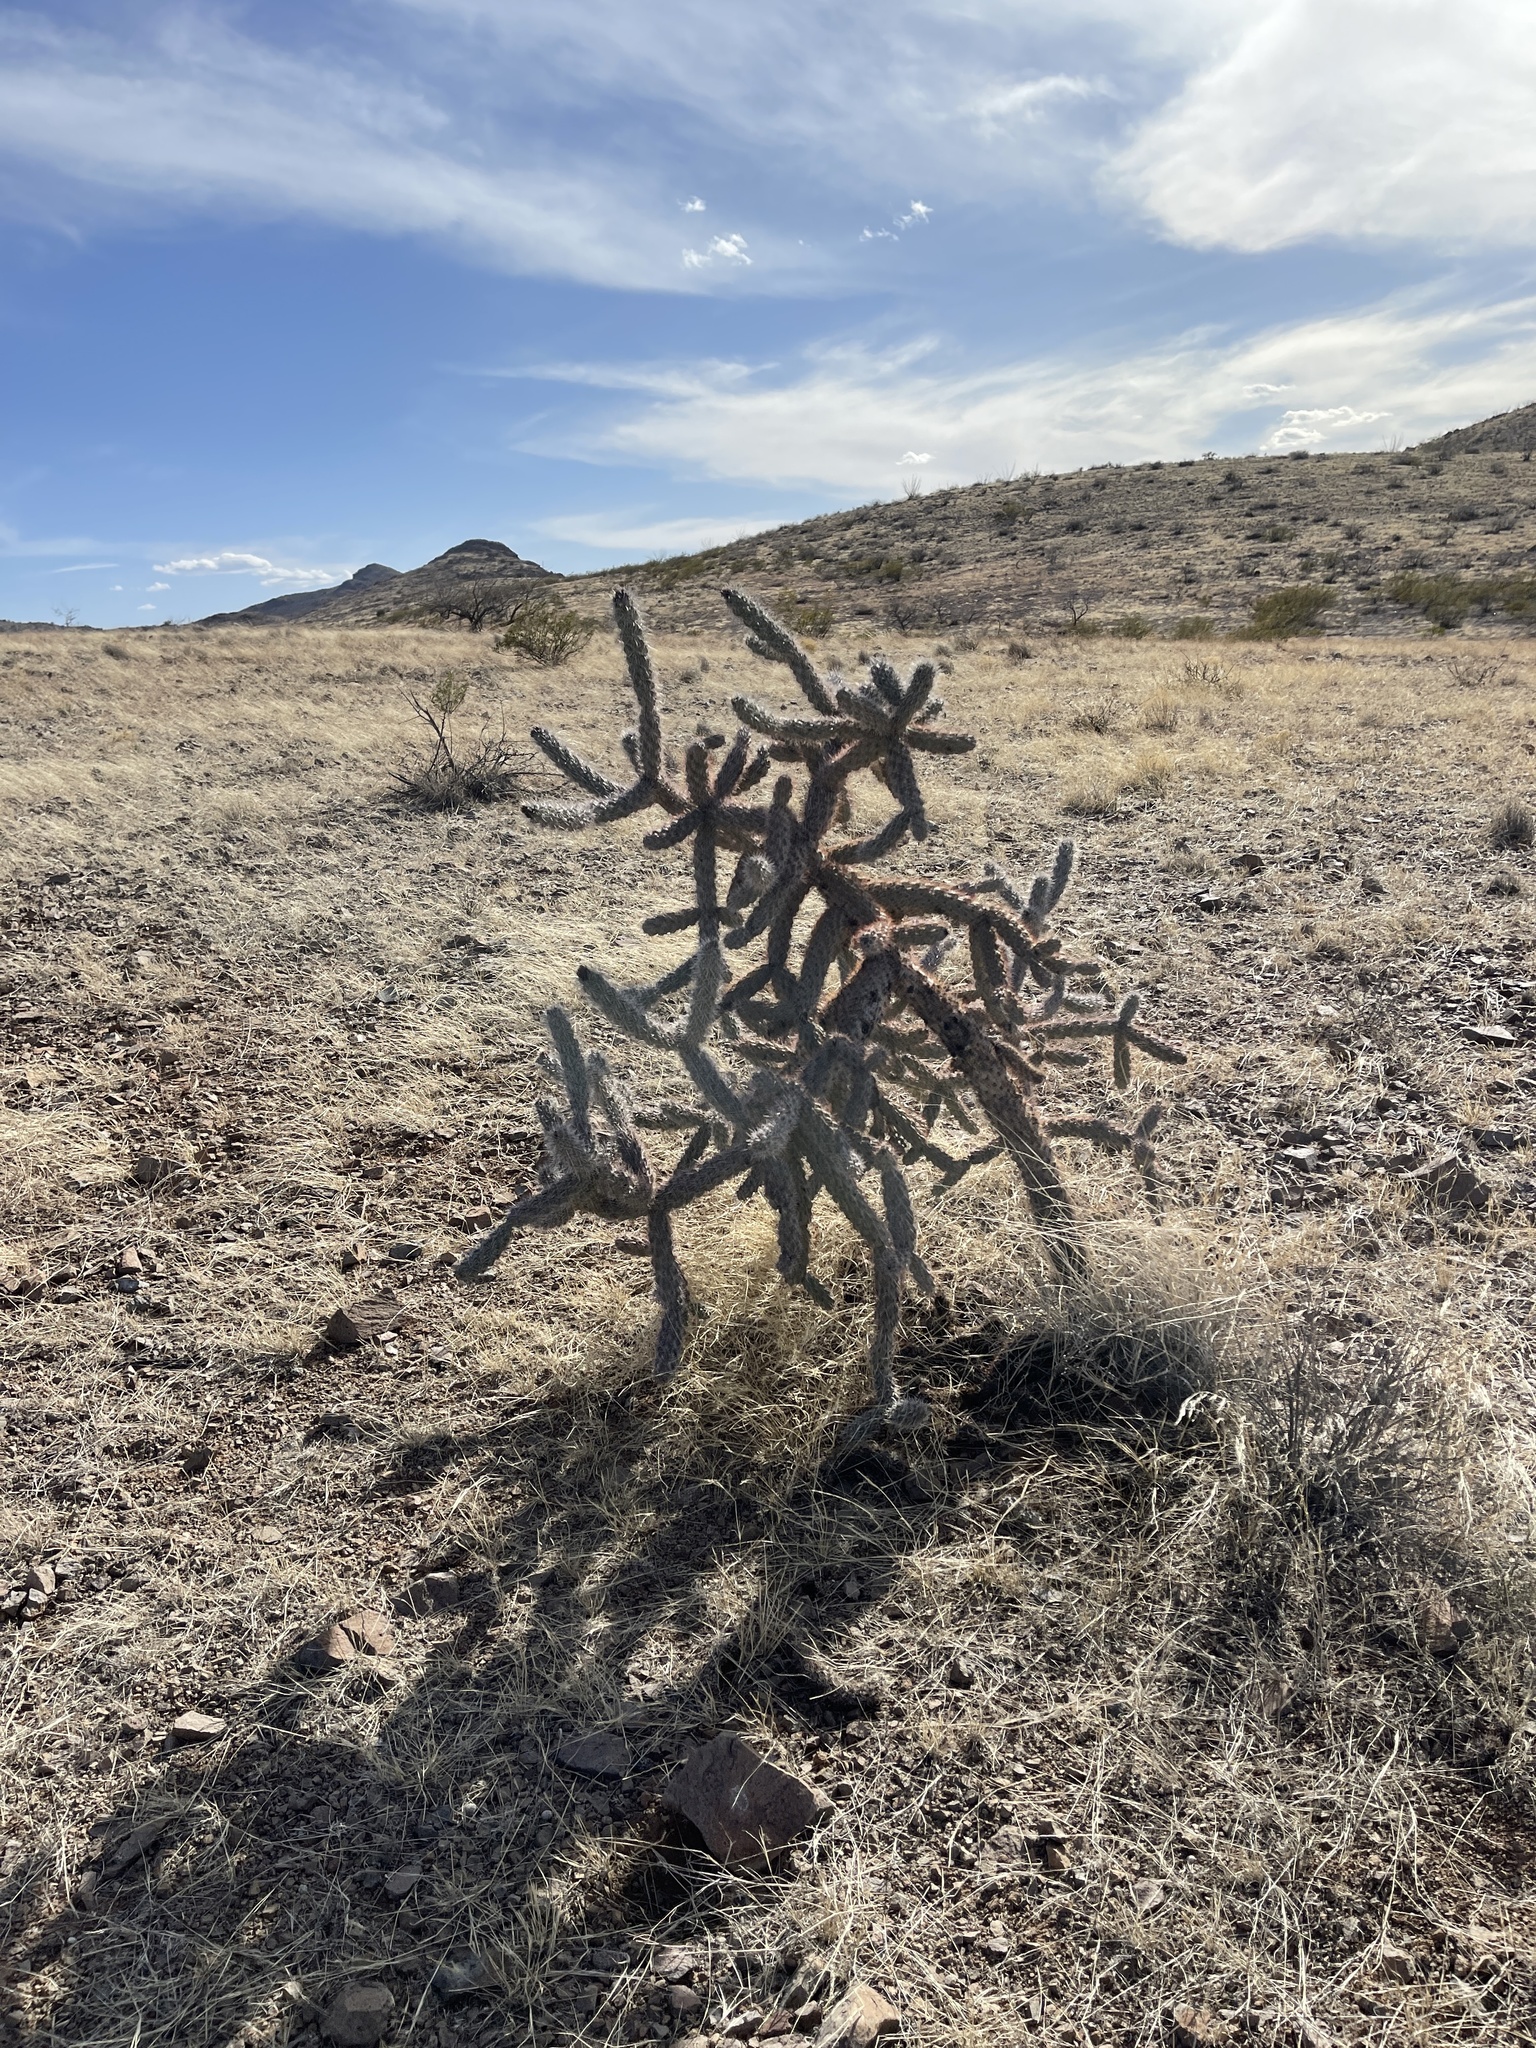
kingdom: Plantae
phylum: Tracheophyta
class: Magnoliopsida
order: Caryophyllales
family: Cactaceae
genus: Cylindropuntia
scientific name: Cylindropuntia imbricata
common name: Candelabrum cactus
